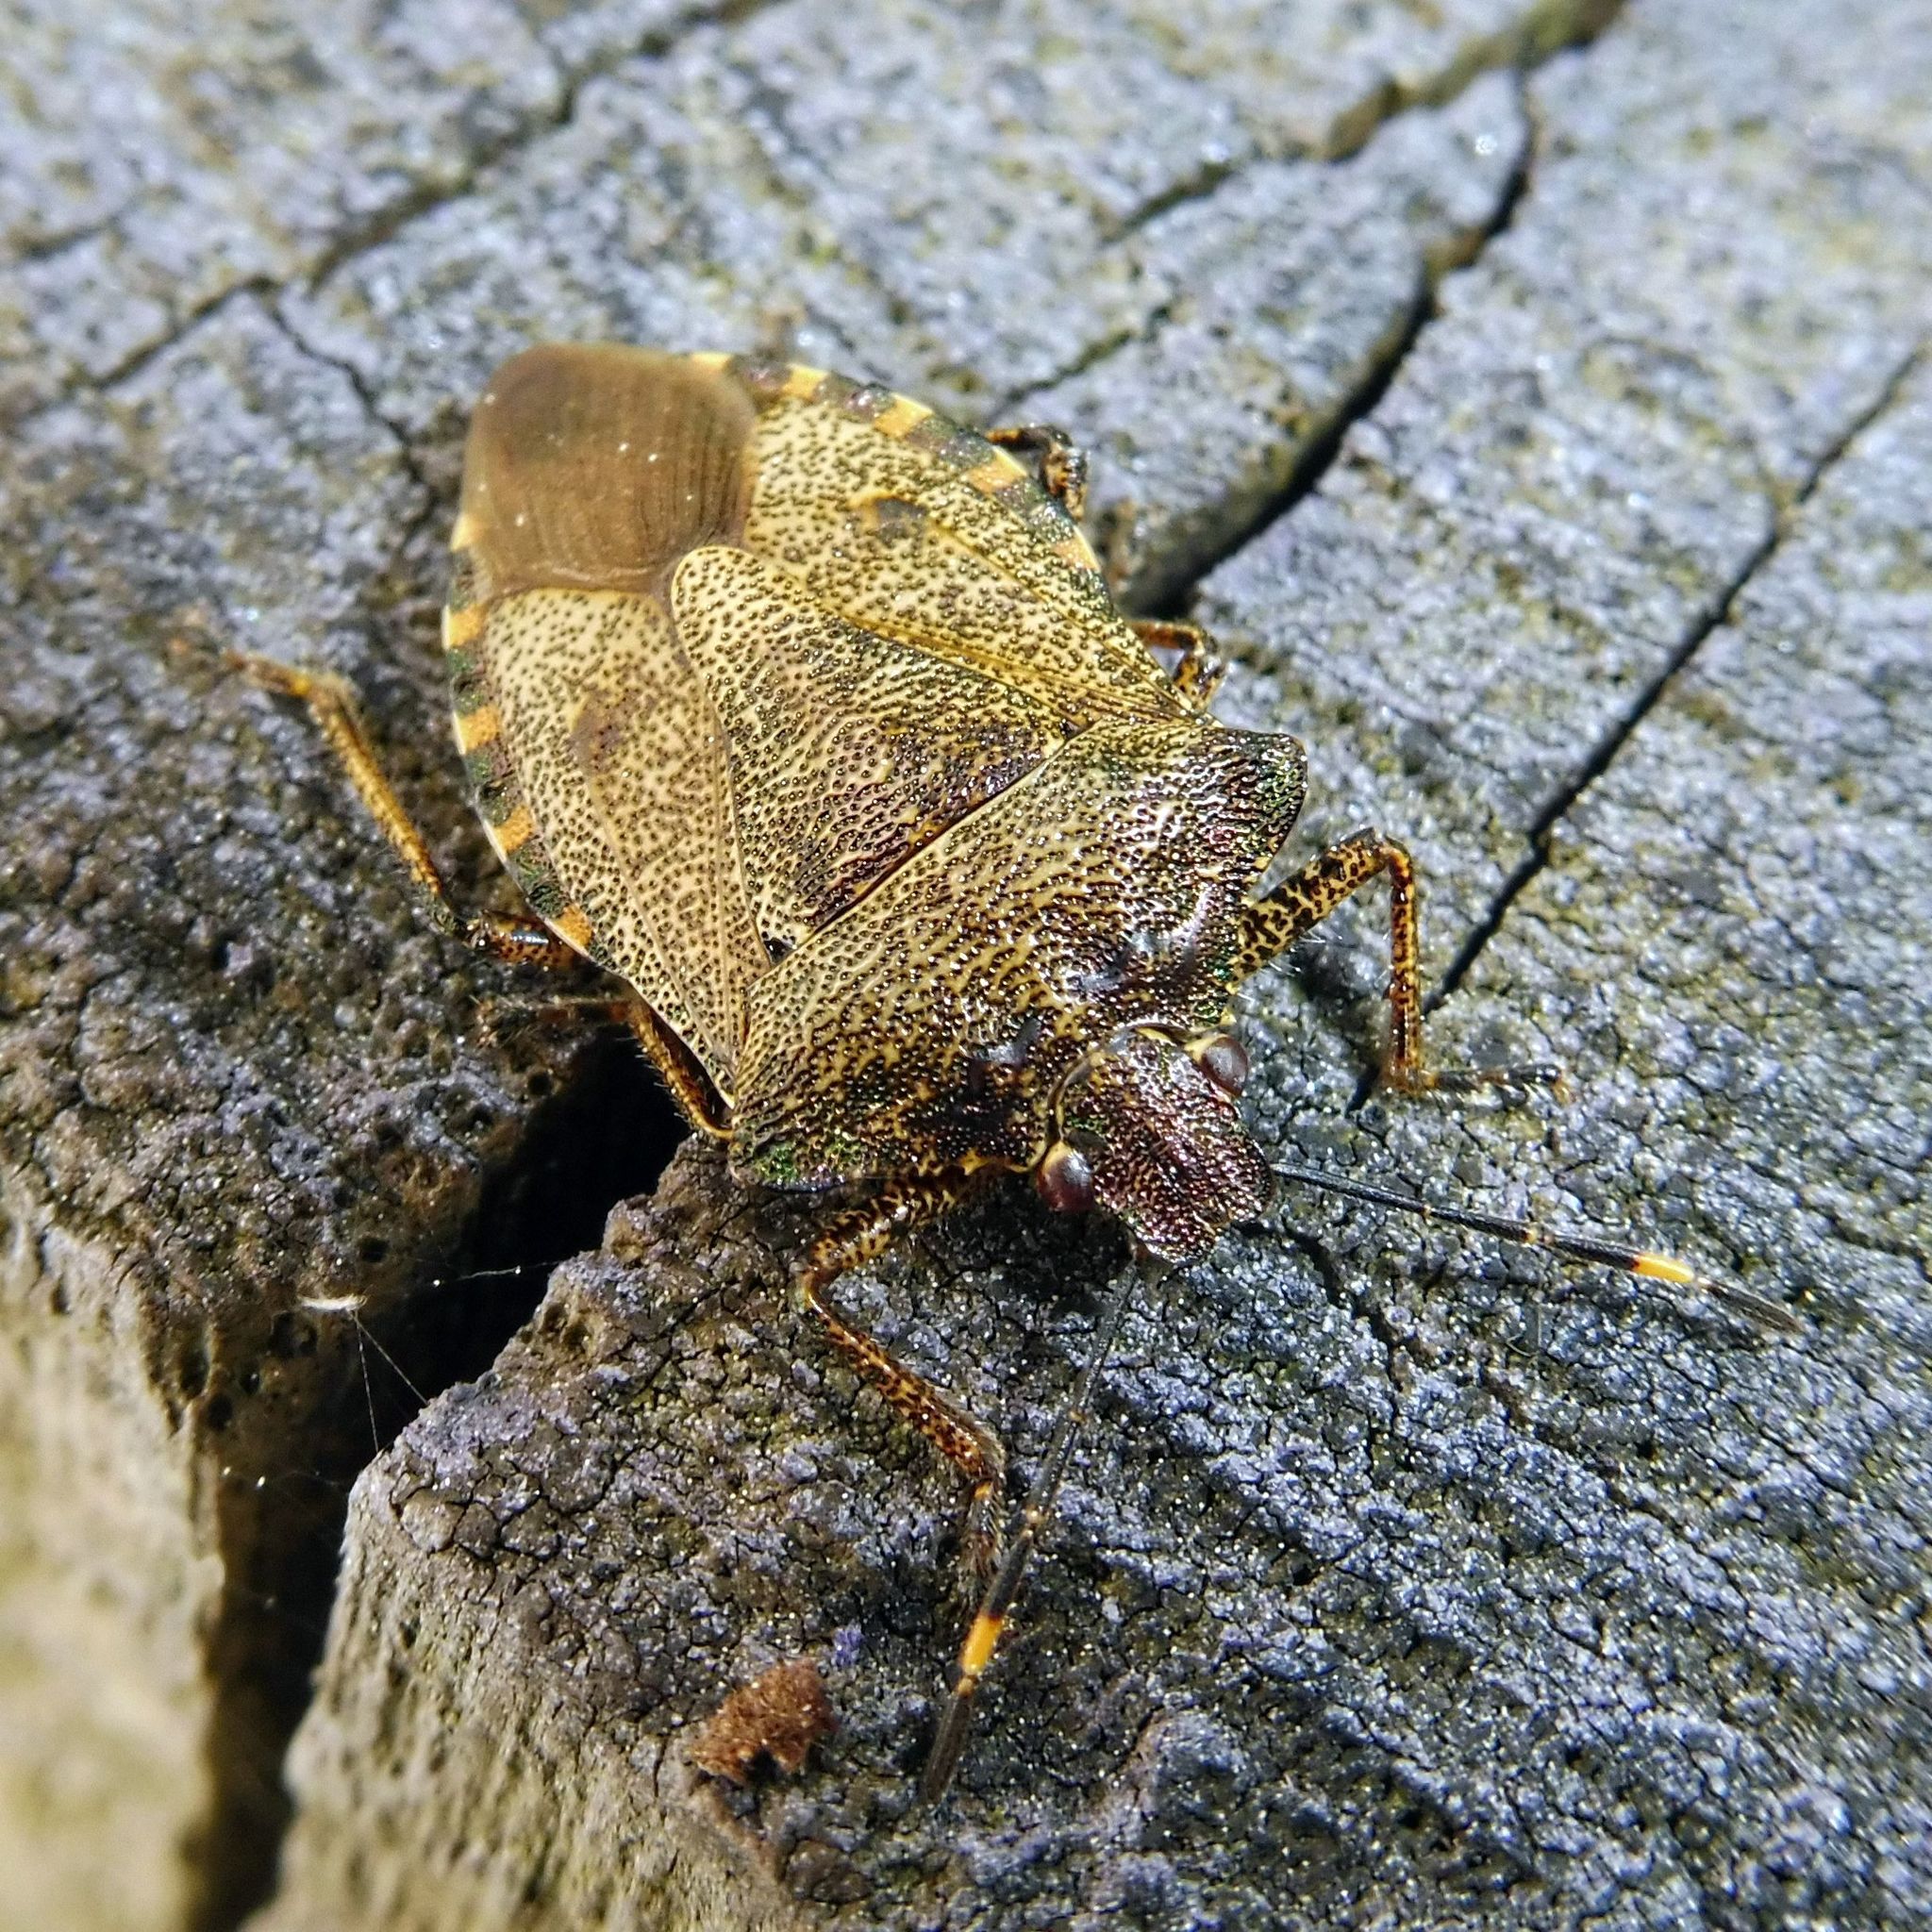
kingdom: Animalia
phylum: Arthropoda
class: Insecta
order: Hemiptera
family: Pentatomidae
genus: Troilus
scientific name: Troilus luridus
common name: Bronze shieldbug
